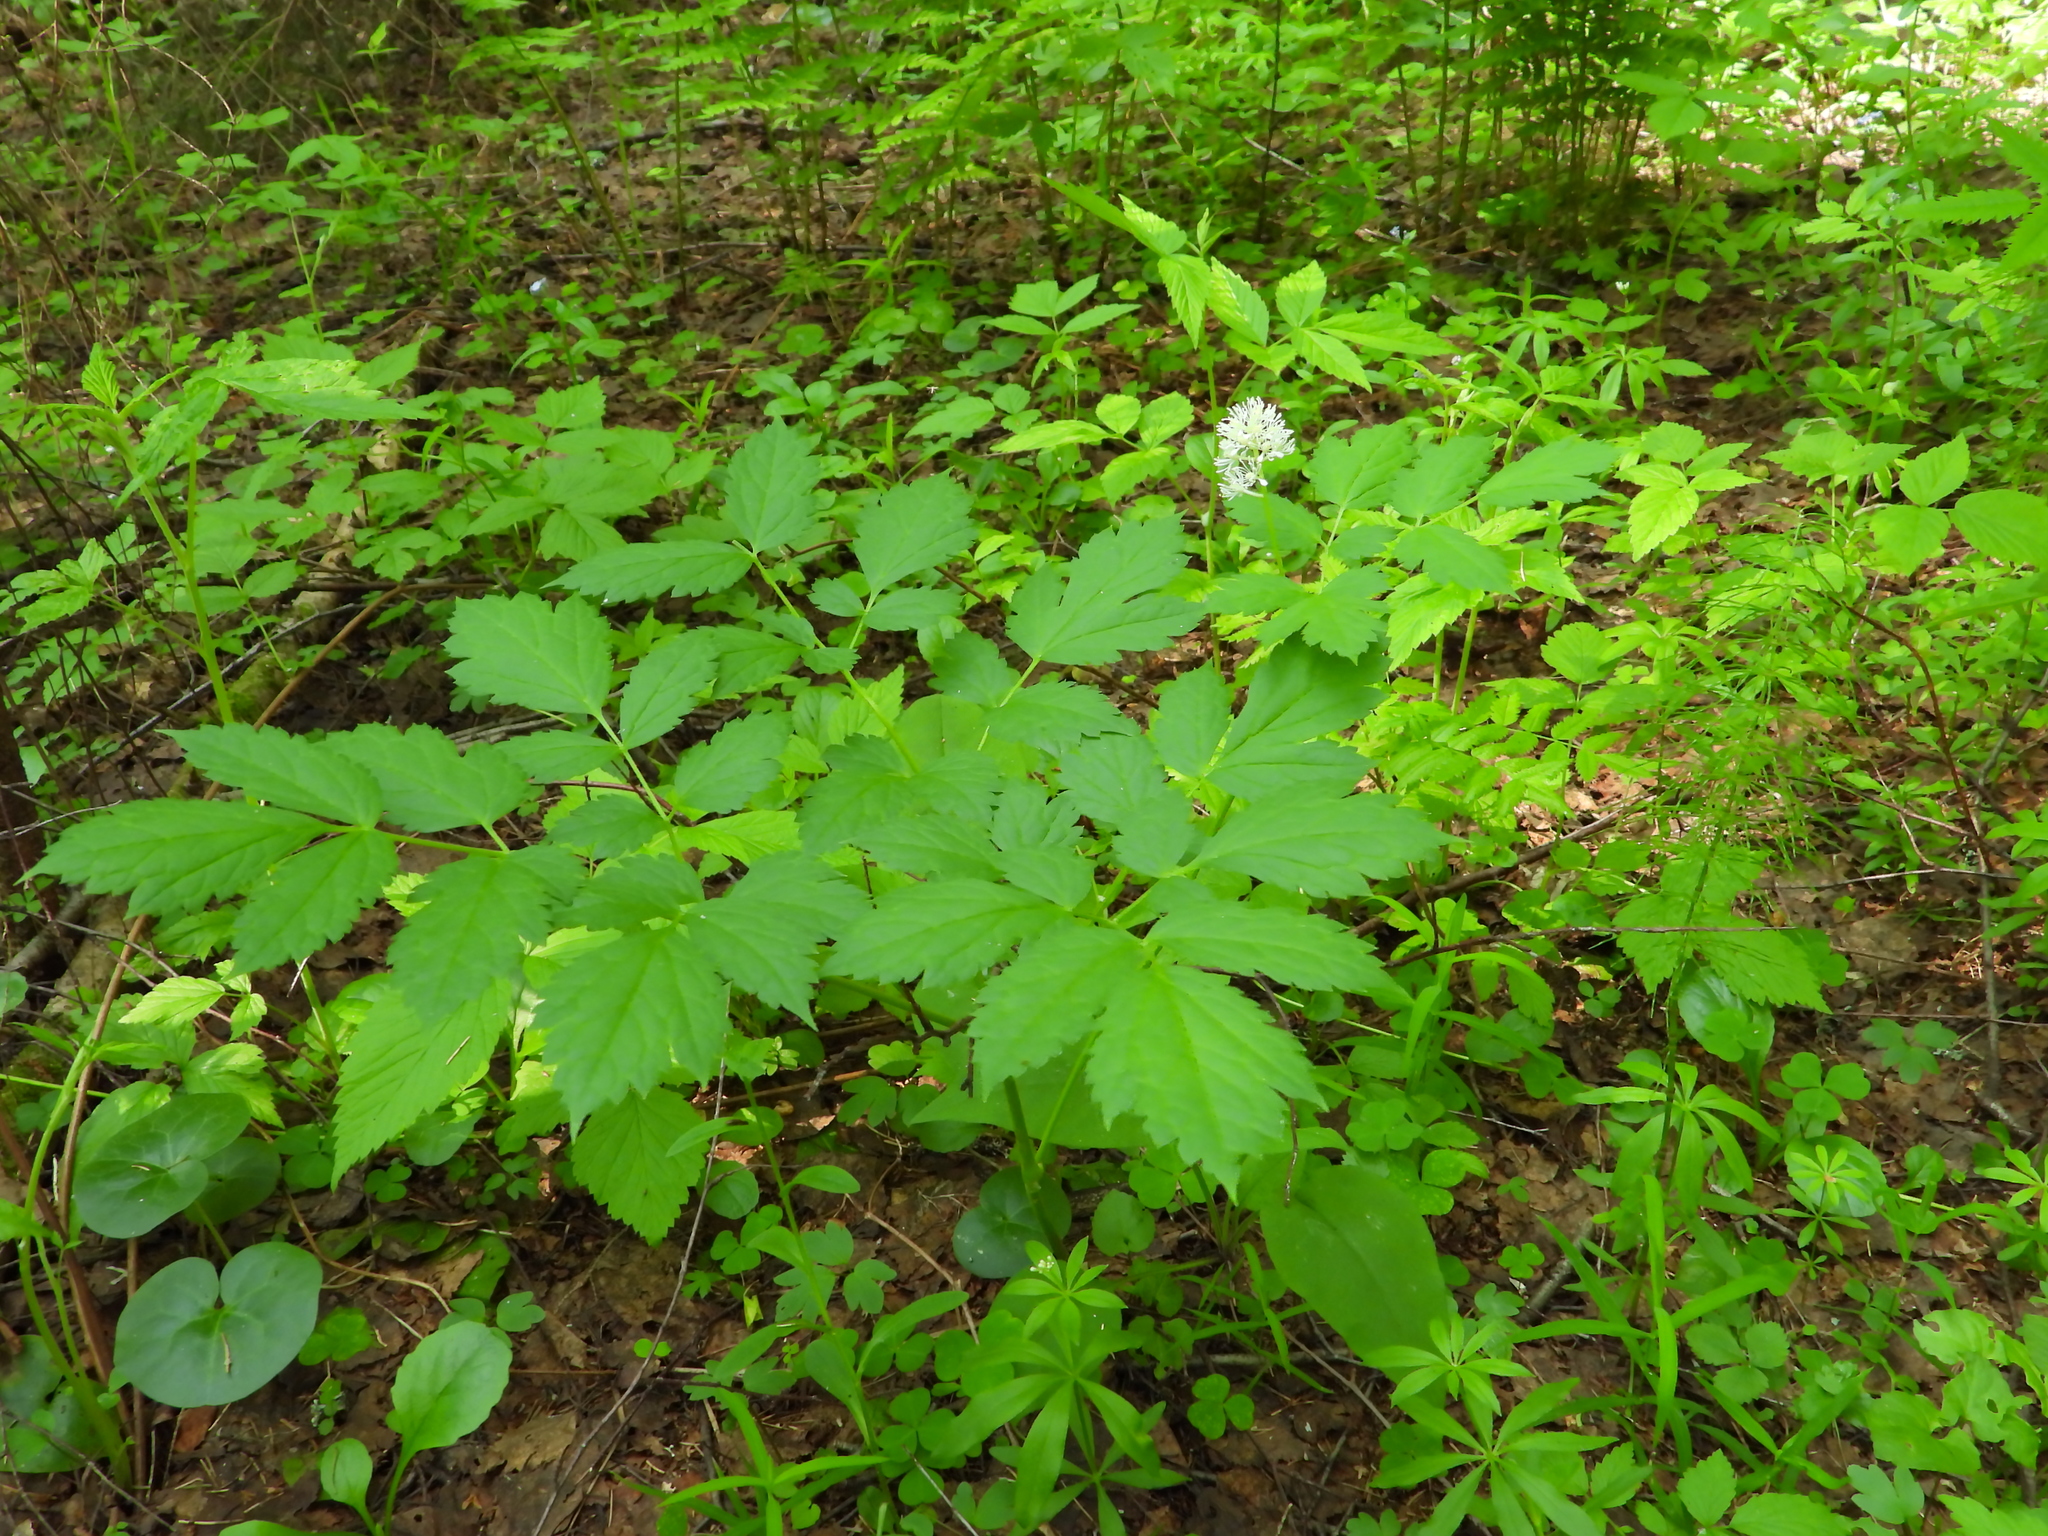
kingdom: Plantae
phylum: Tracheophyta
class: Magnoliopsida
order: Ranunculales
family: Ranunculaceae
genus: Actaea
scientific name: Actaea spicata
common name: Baneberry
